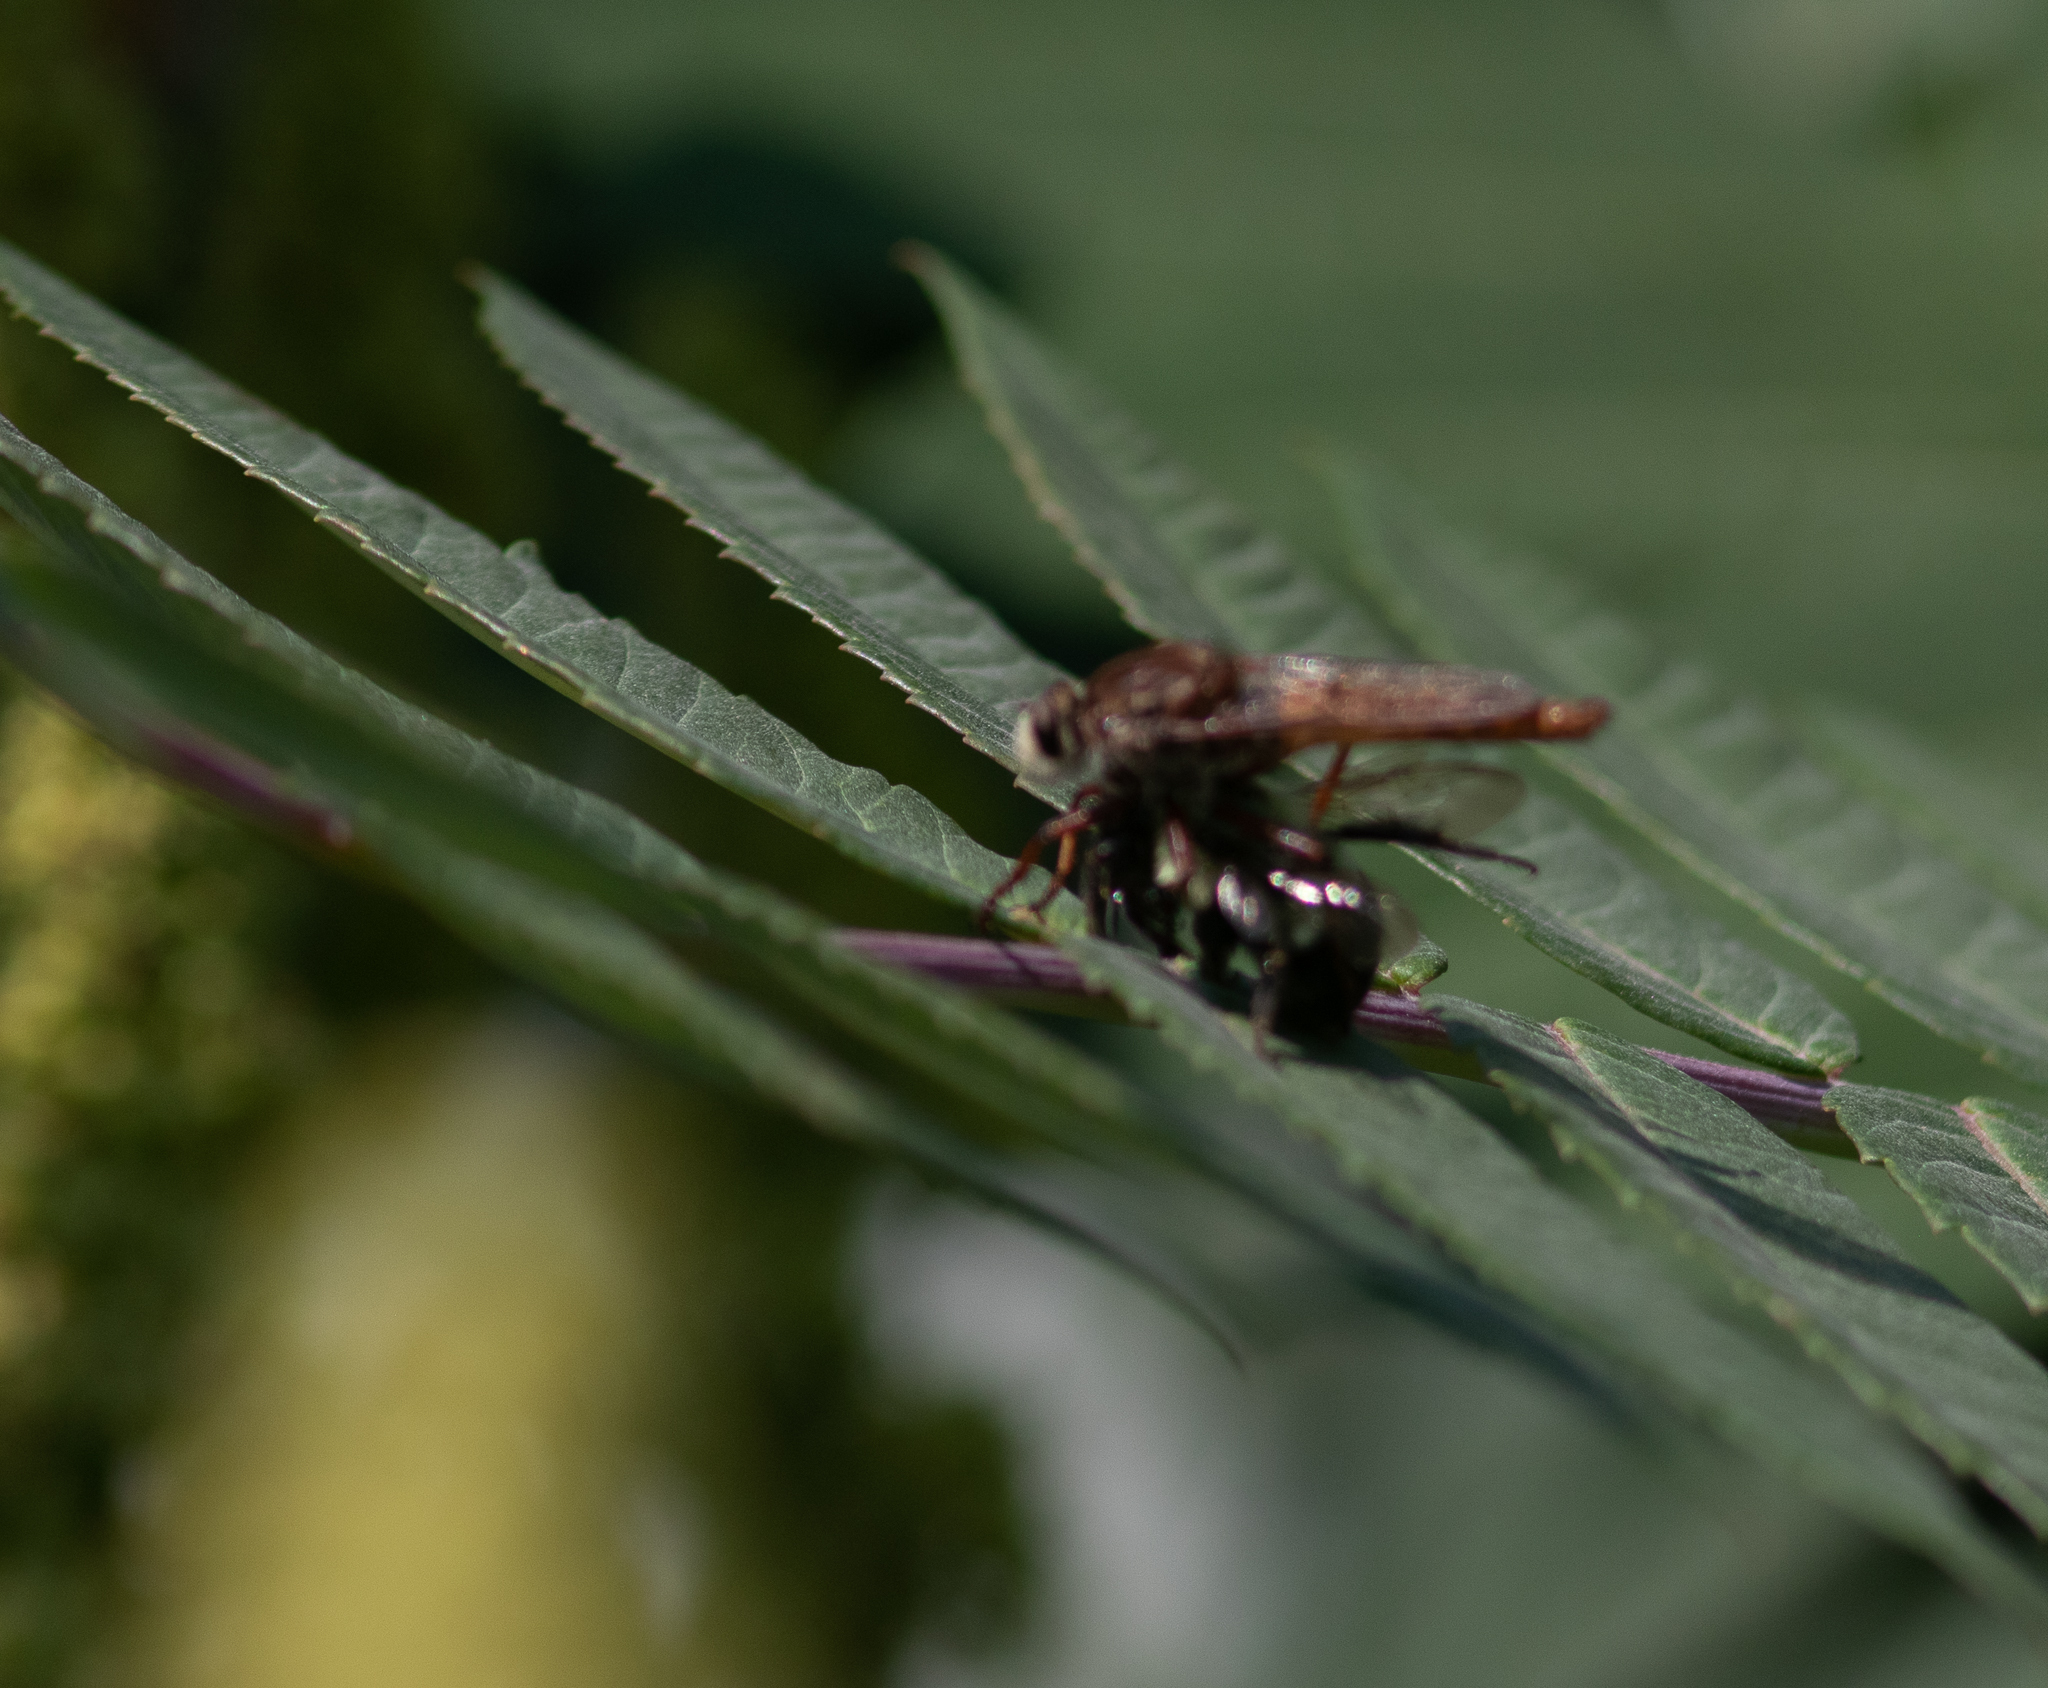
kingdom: Animalia
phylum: Arthropoda
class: Insecta
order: Diptera
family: Asilidae
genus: Proctacanthus
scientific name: Proctacanthus
